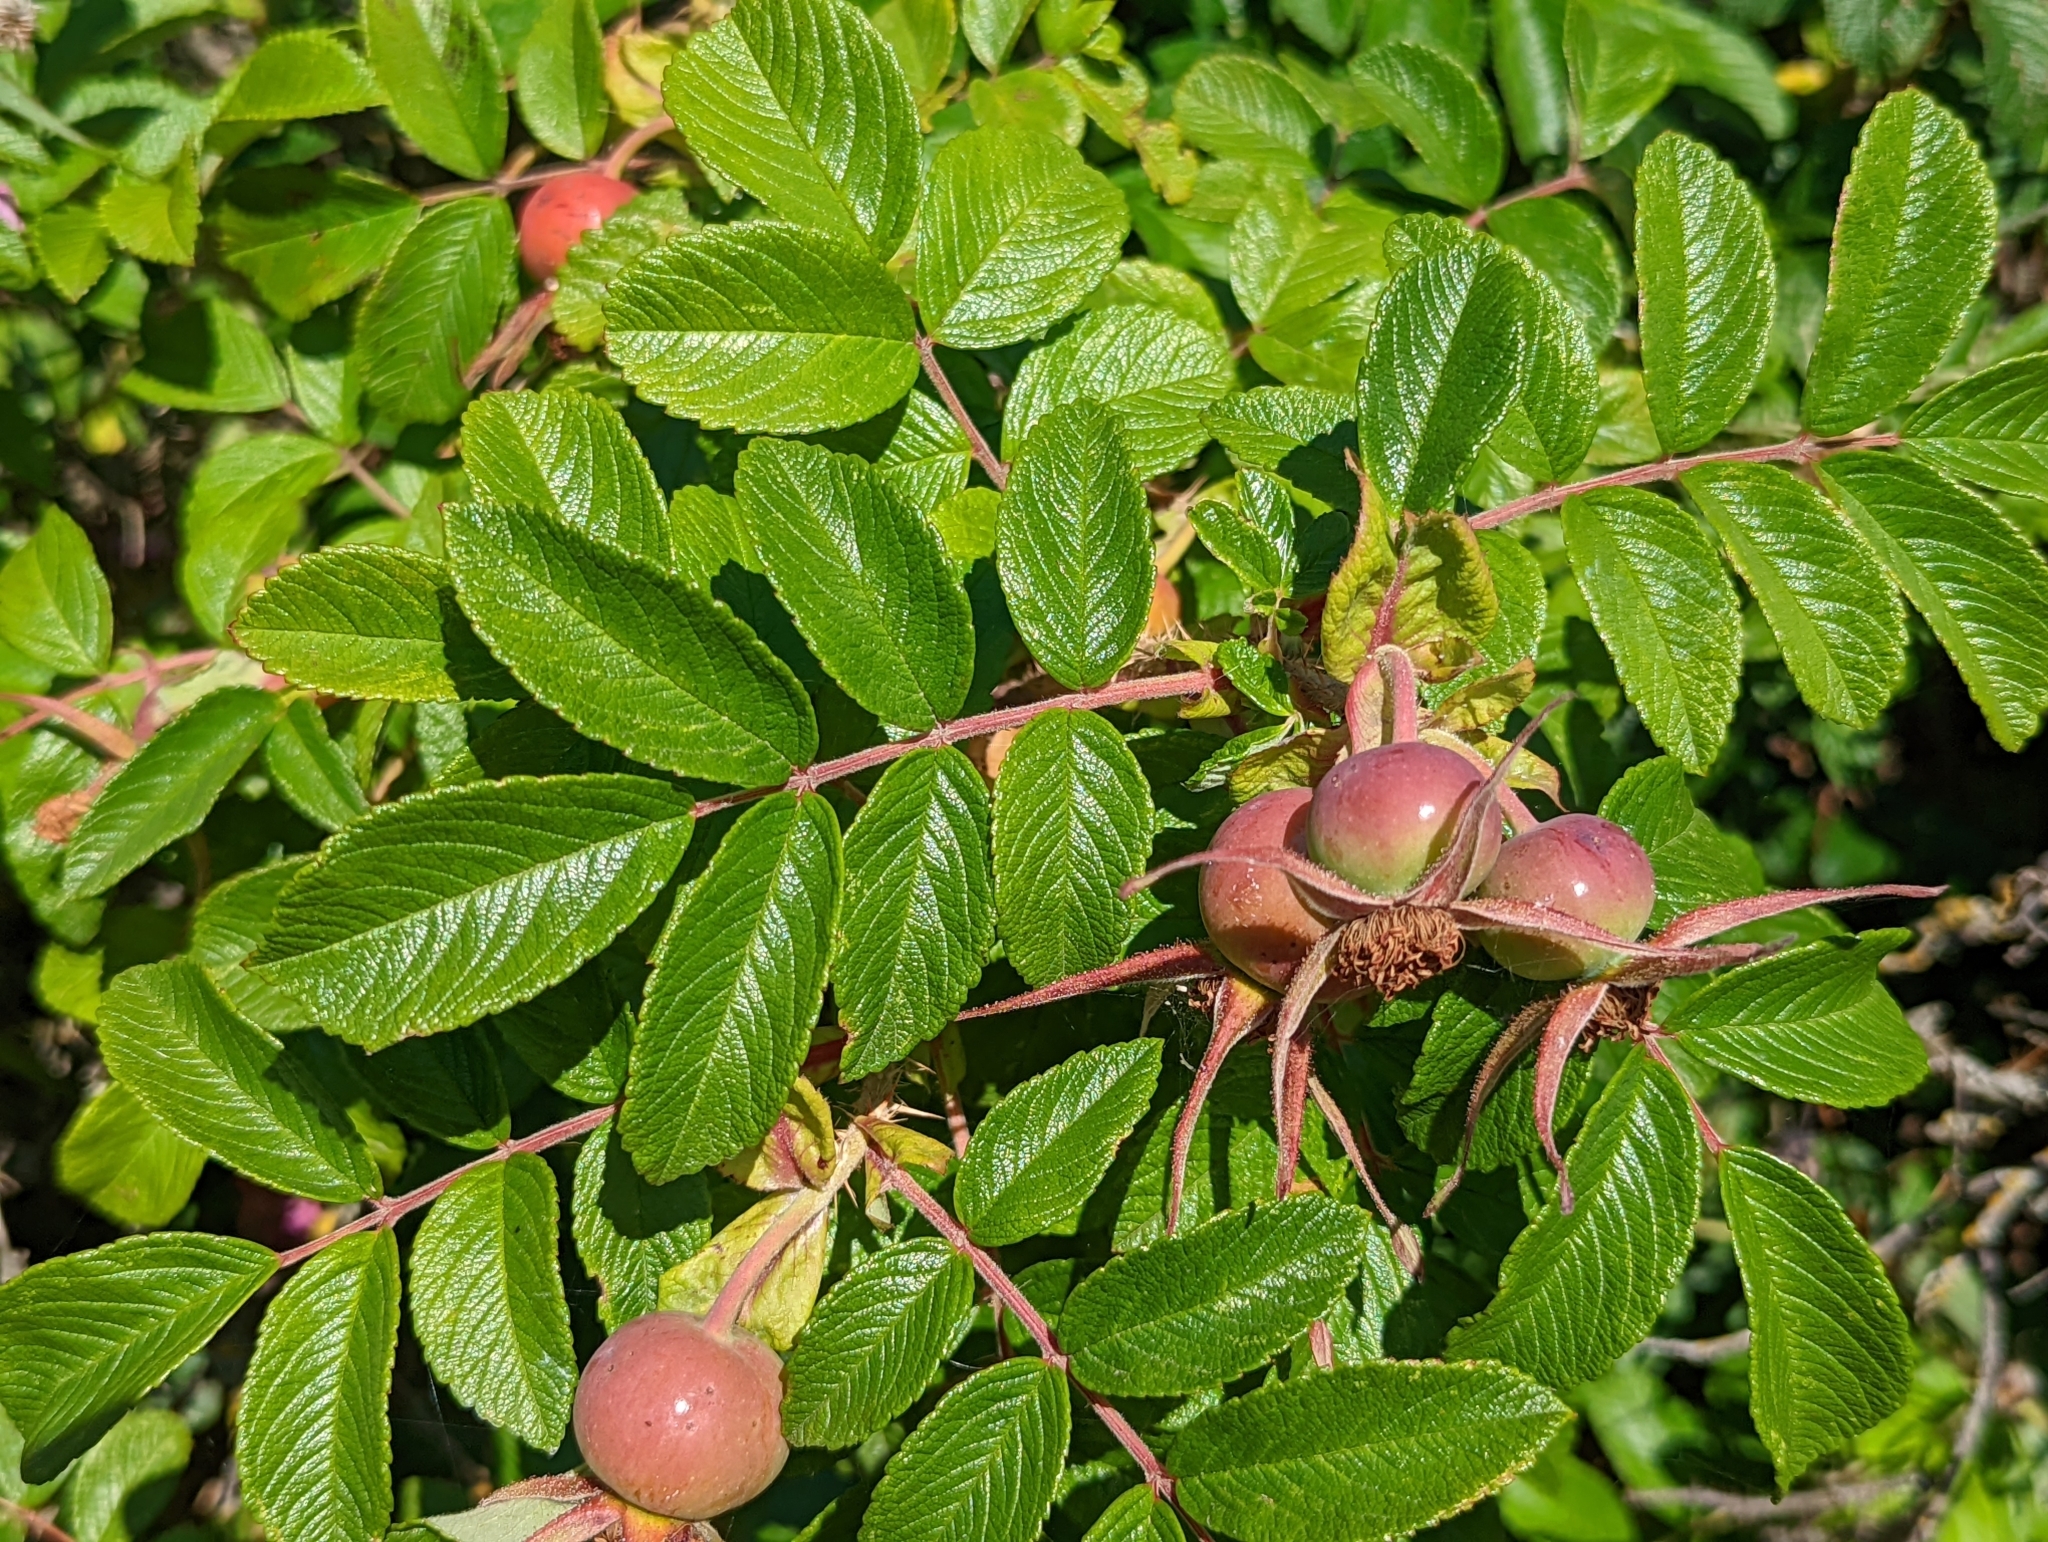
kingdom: Plantae
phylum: Tracheophyta
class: Magnoliopsida
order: Rosales
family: Rosaceae
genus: Rosa
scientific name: Rosa rugosa
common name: Japanese rose
